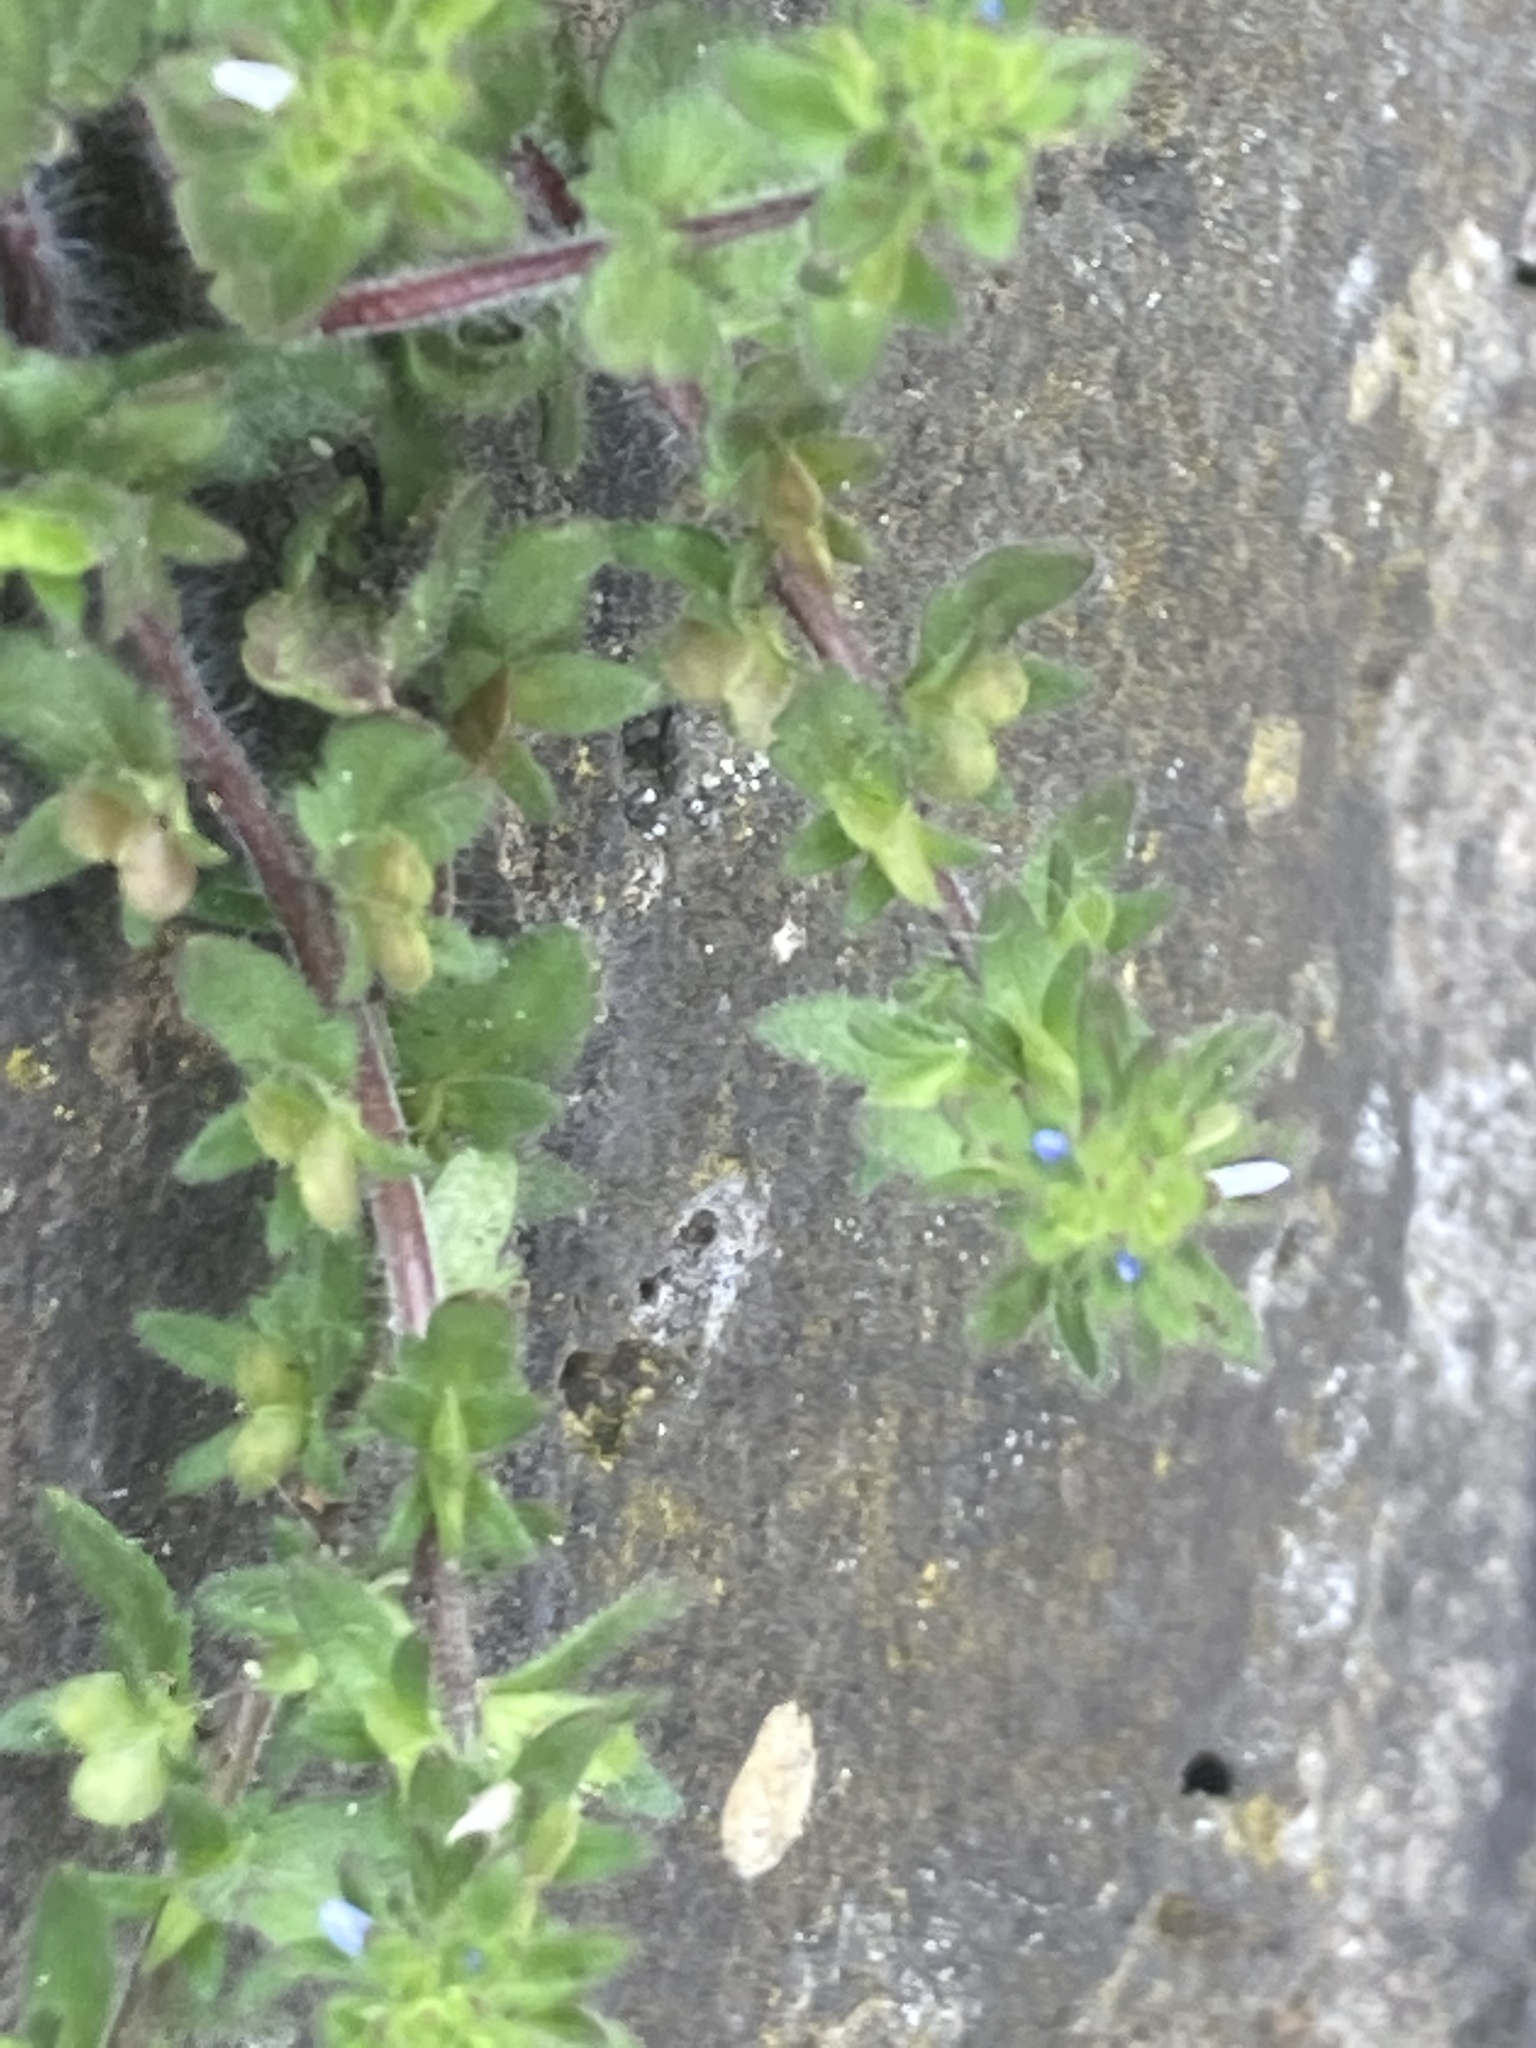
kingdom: Plantae
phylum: Tracheophyta
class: Magnoliopsida
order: Lamiales
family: Plantaginaceae
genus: Veronica
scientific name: Veronica arvensis
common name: Corn speedwell
